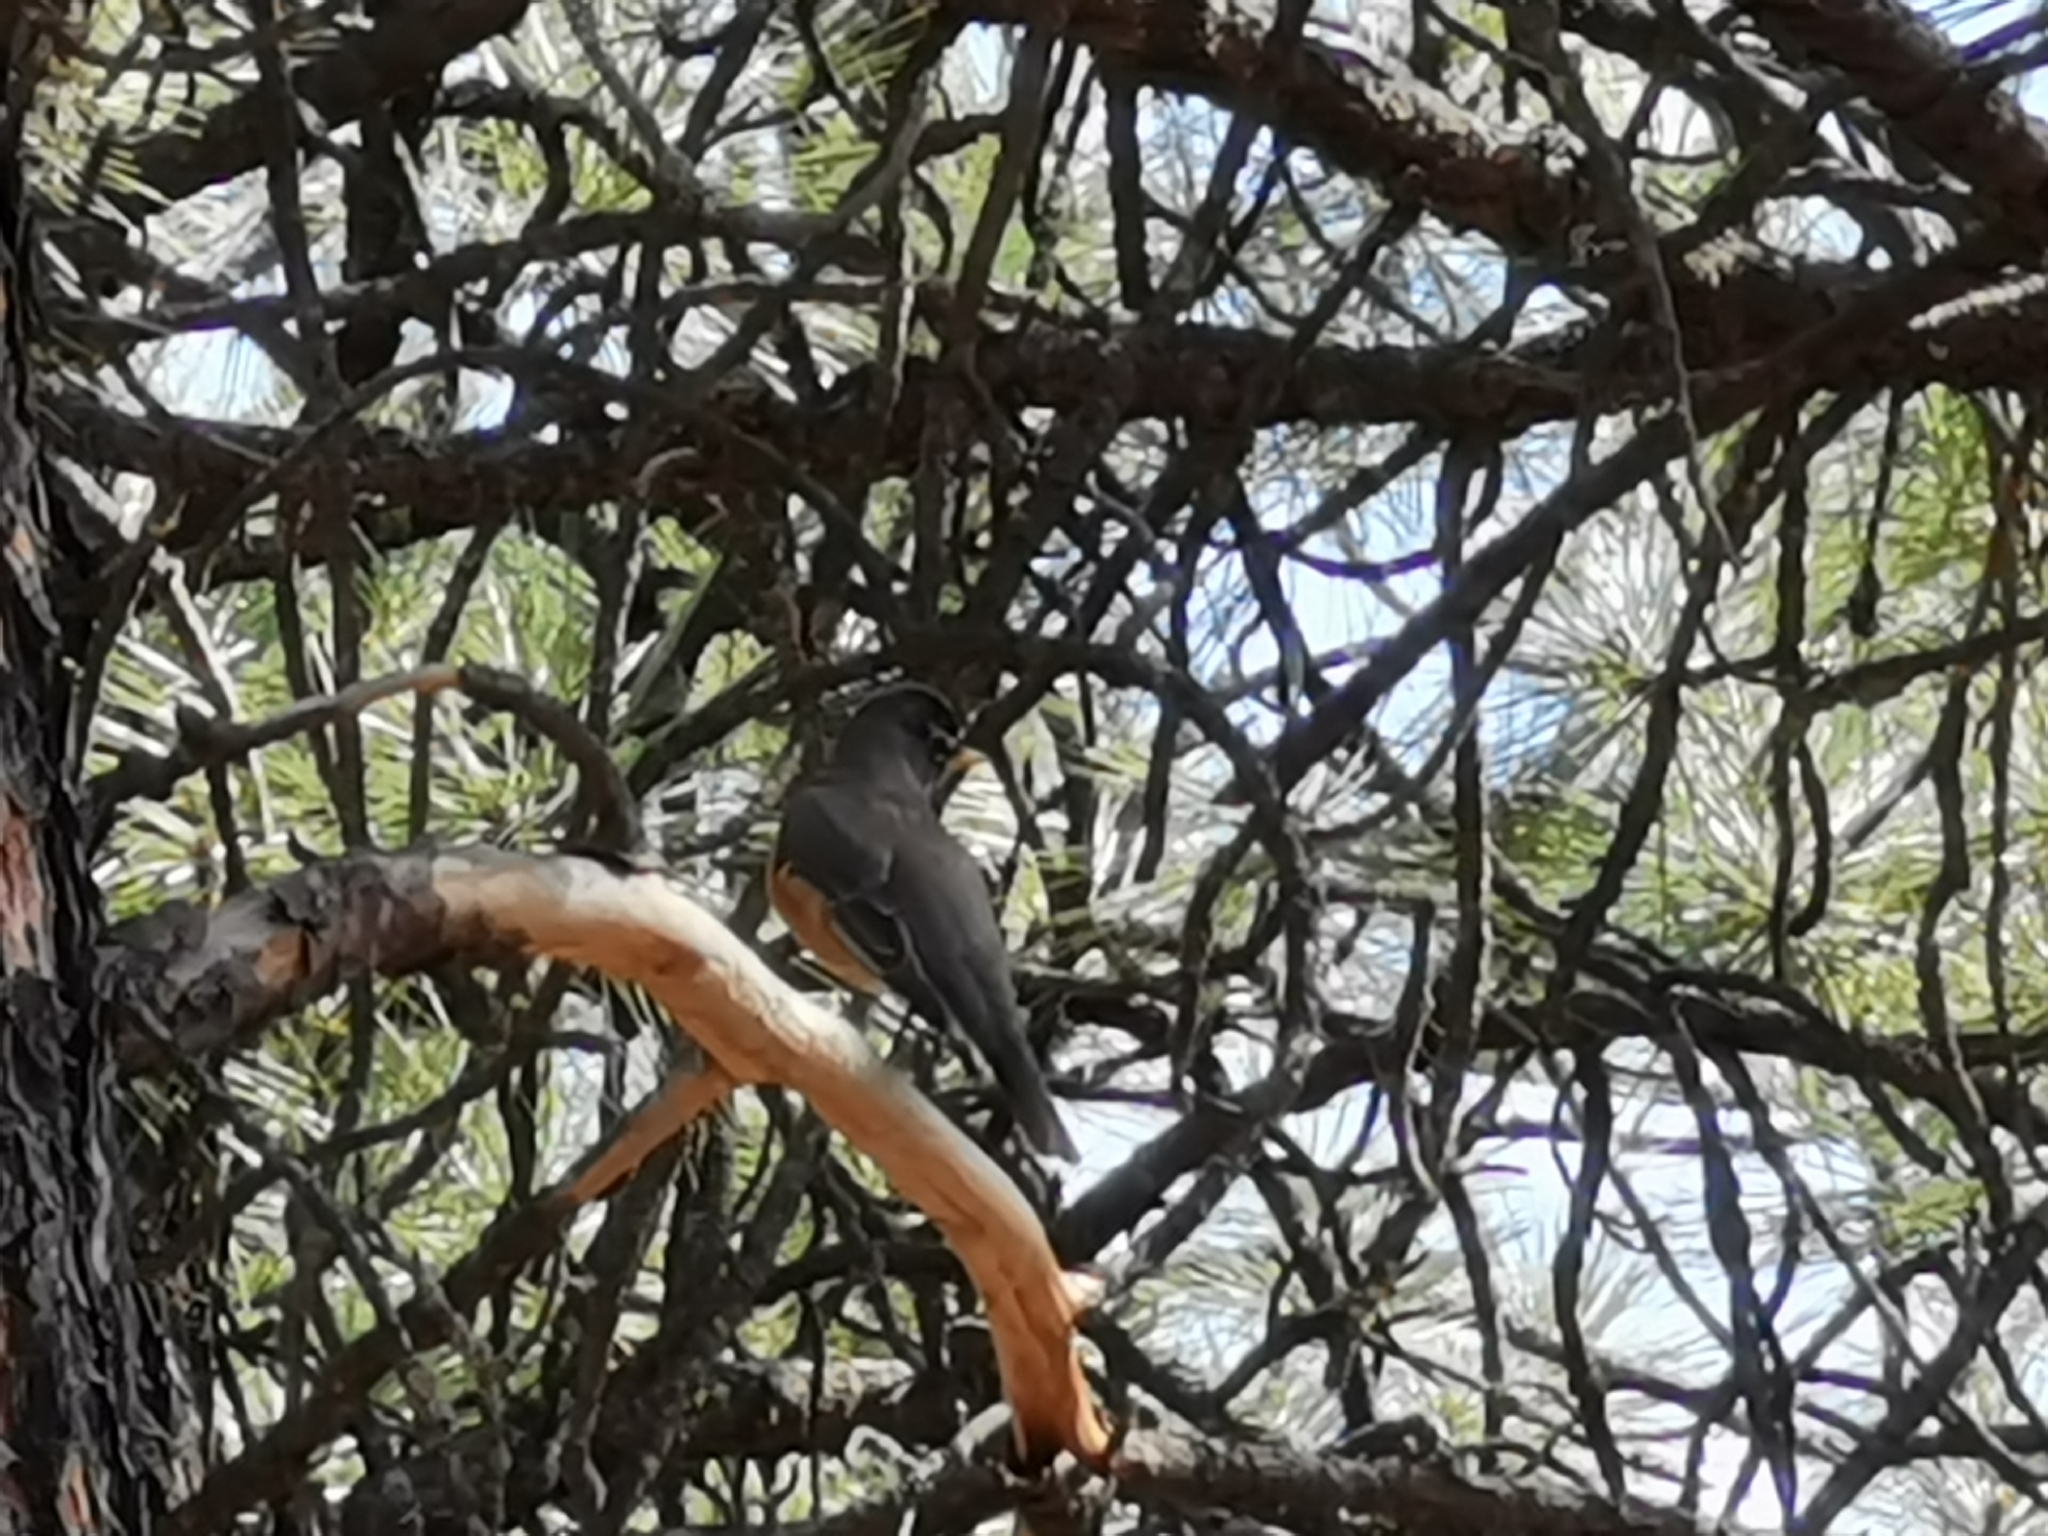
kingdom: Animalia
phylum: Chordata
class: Aves
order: Passeriformes
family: Turdidae
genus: Turdus
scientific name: Turdus migratorius
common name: American robin
